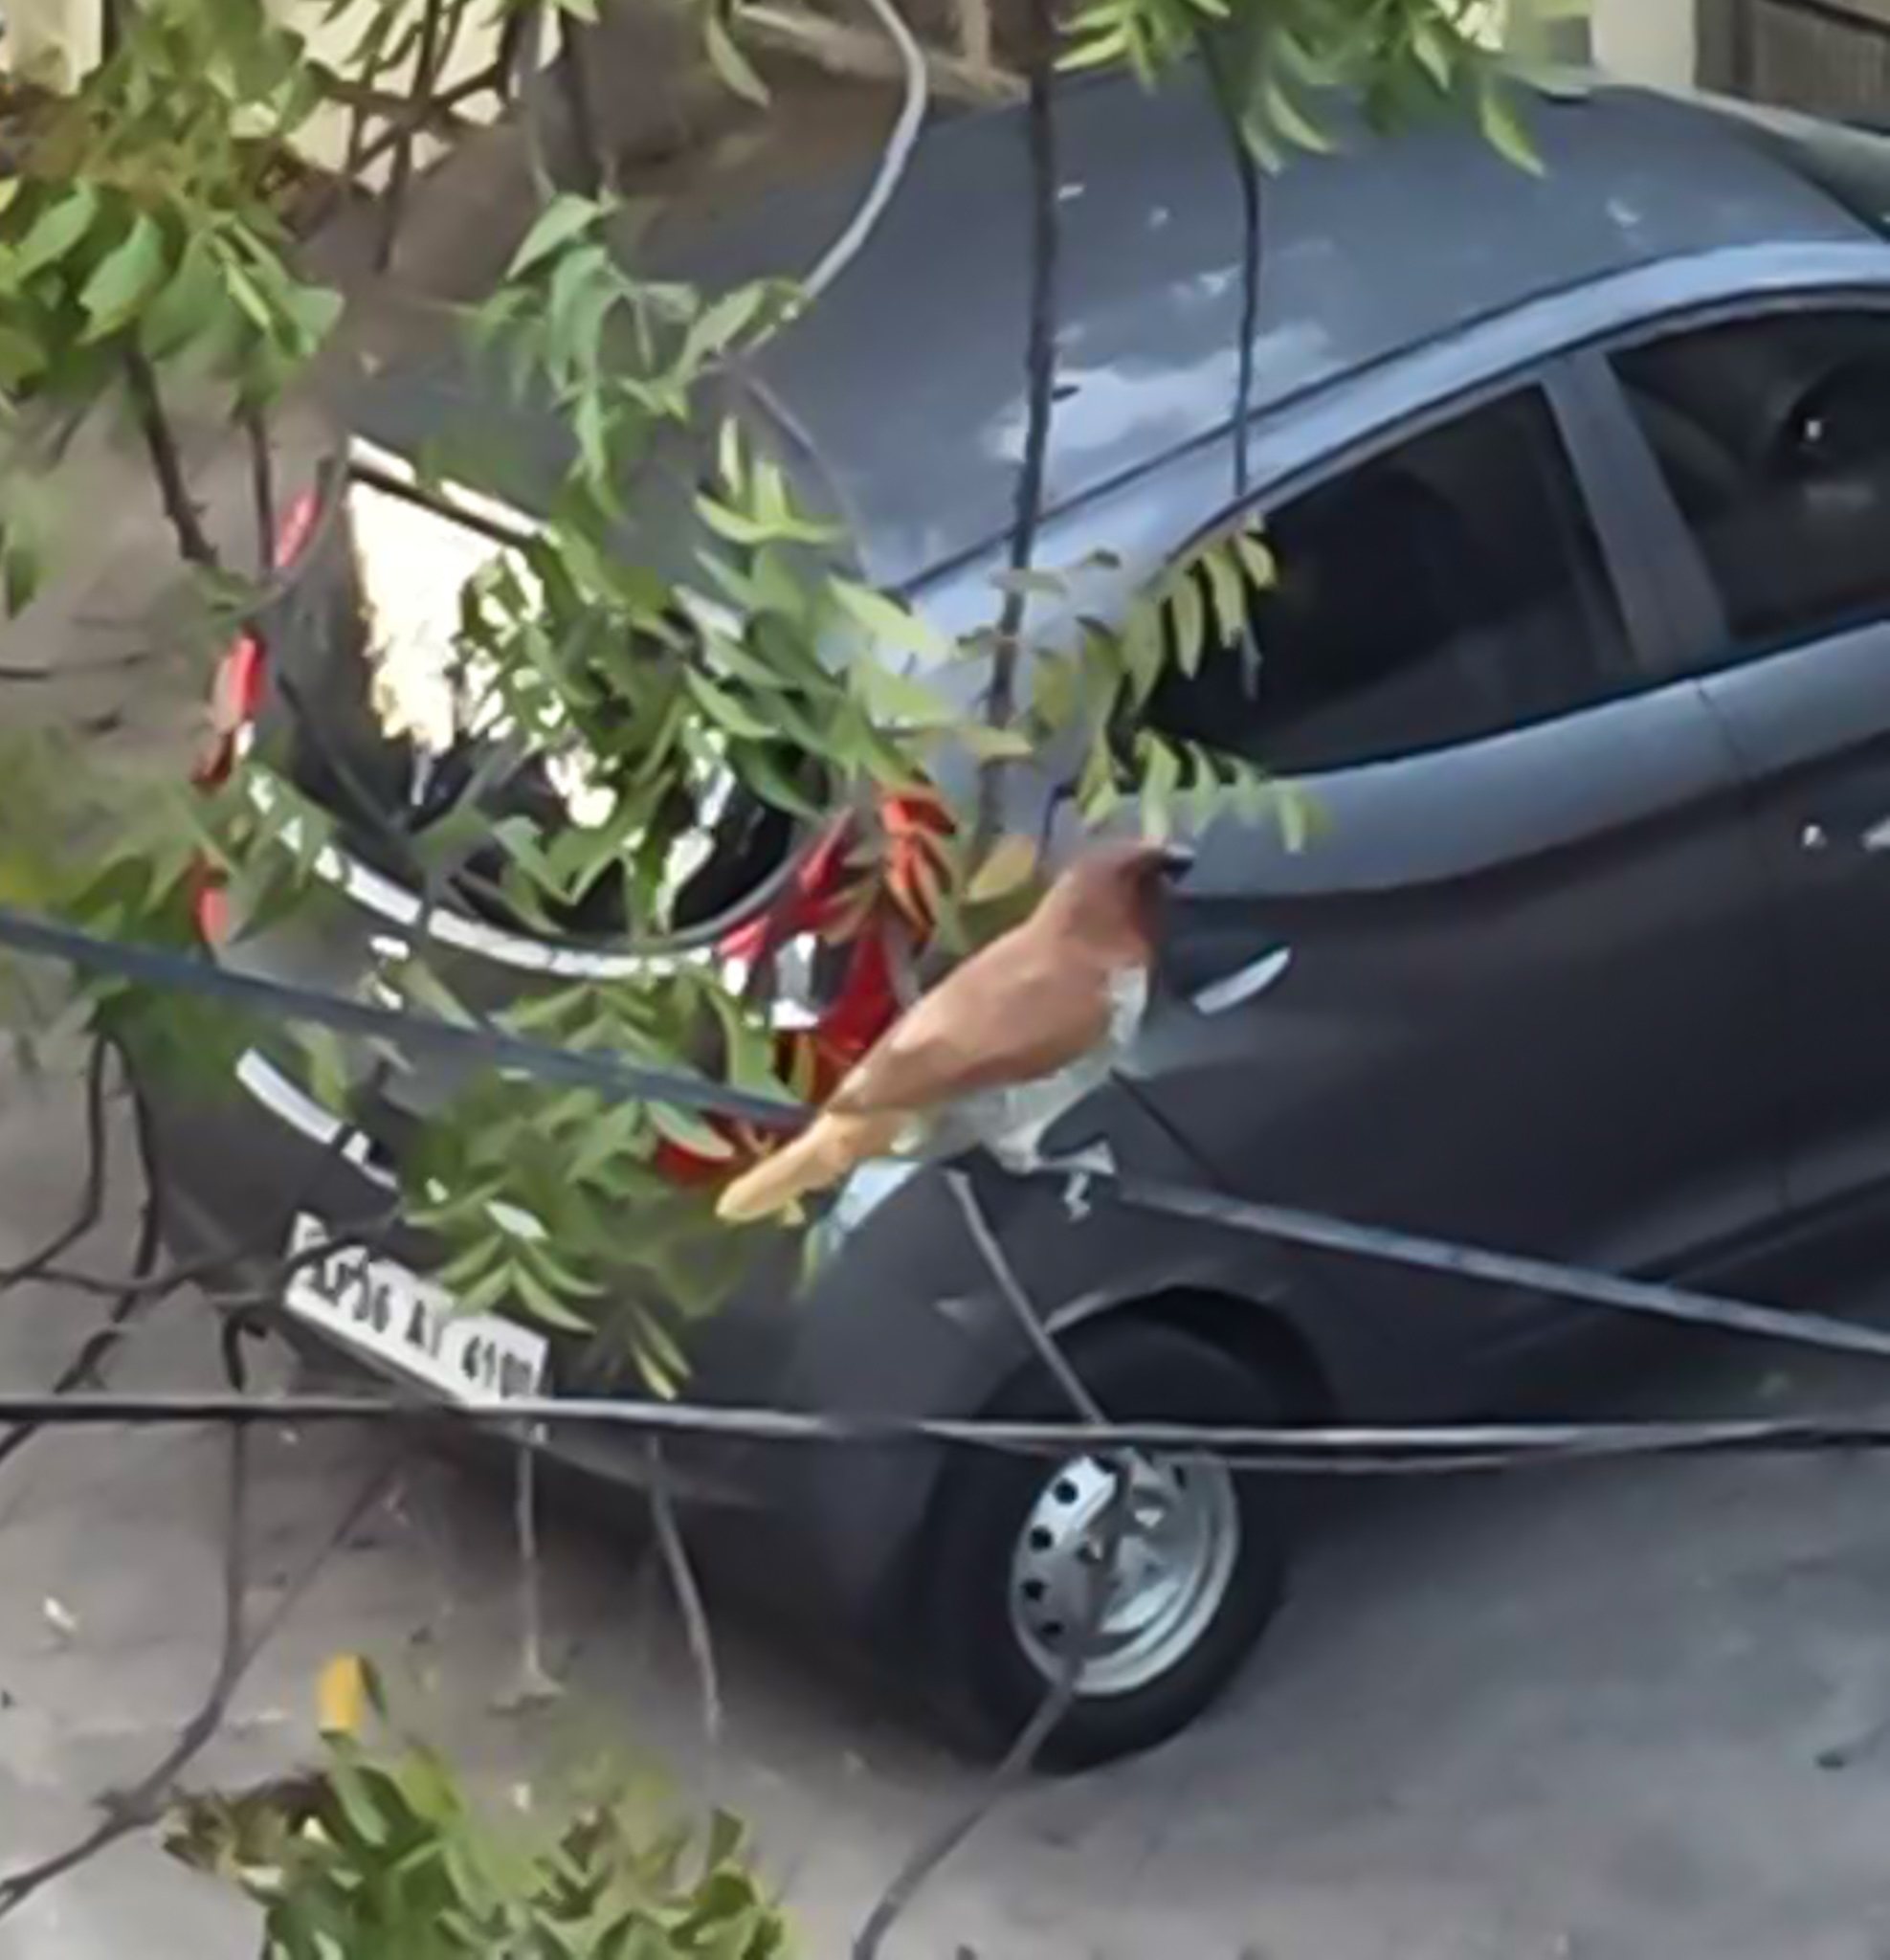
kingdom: Animalia
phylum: Chordata
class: Aves
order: Passeriformes
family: Estrildidae
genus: Lonchura
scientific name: Lonchura punctulata
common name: Scaly-breasted munia
